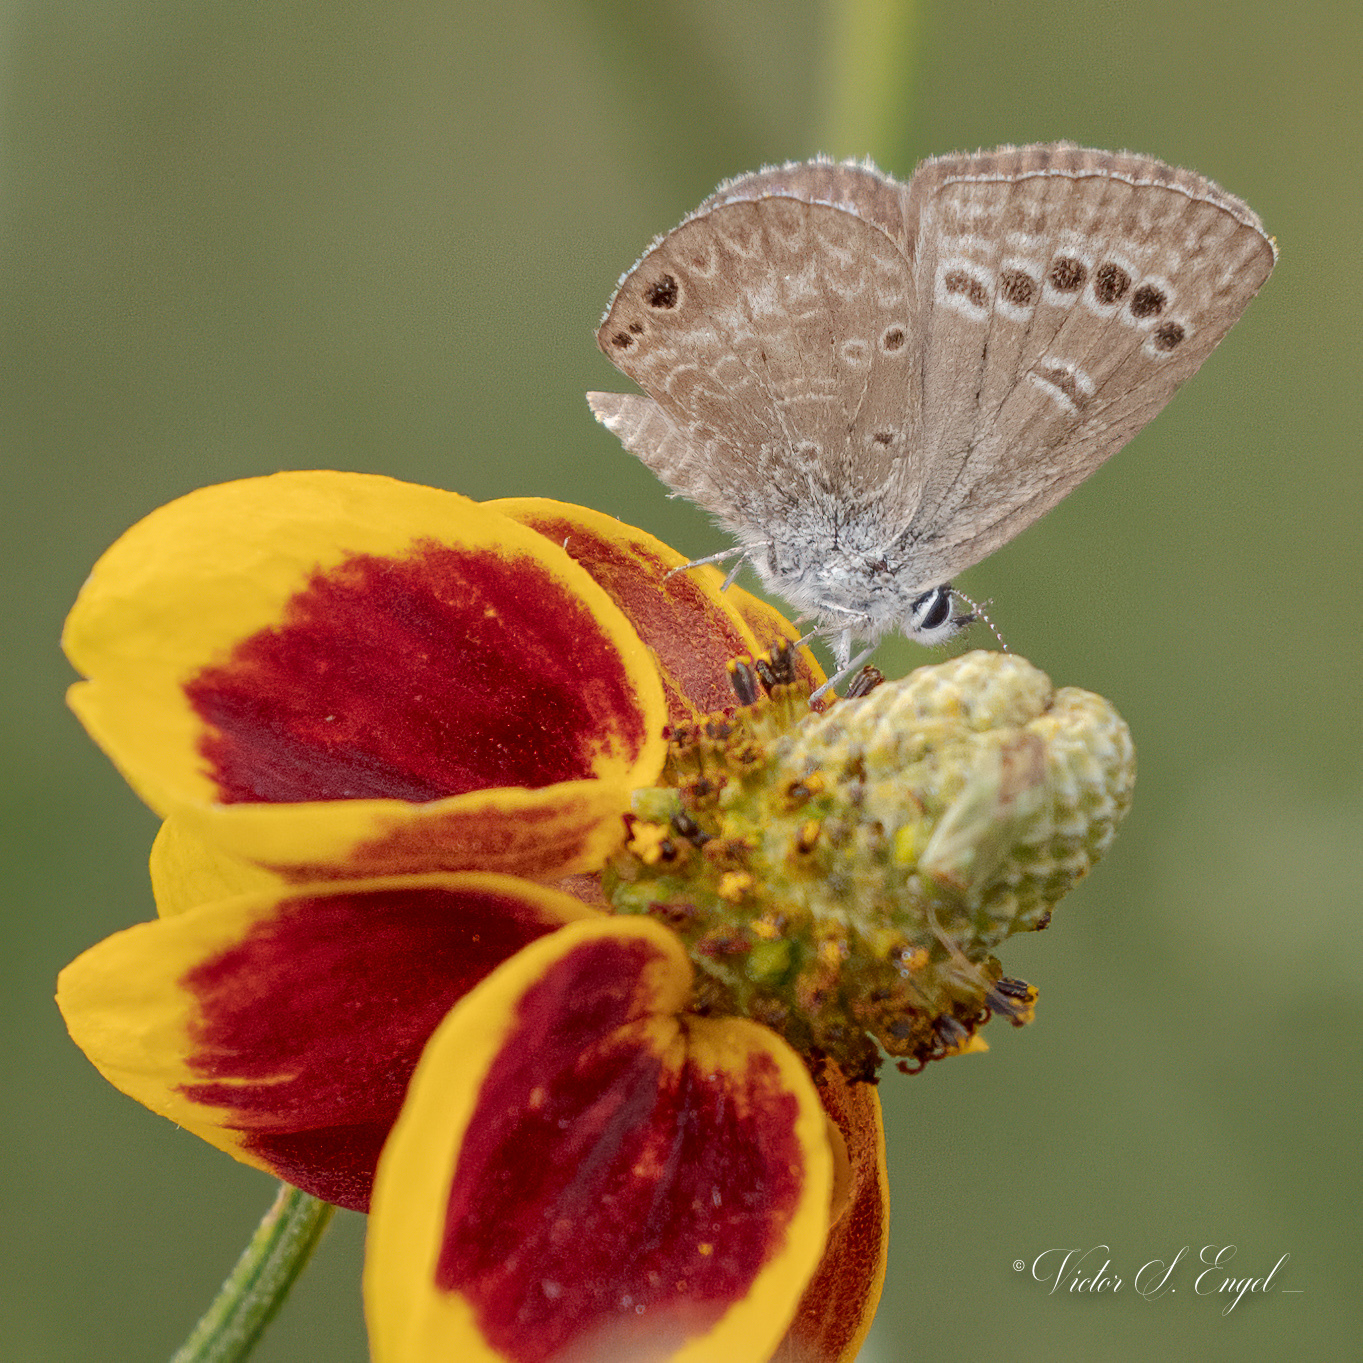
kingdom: Animalia
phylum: Arthropoda
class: Insecta
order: Lepidoptera
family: Lycaenidae
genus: Echinargus
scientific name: Echinargus isola
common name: Reakirt's blue
